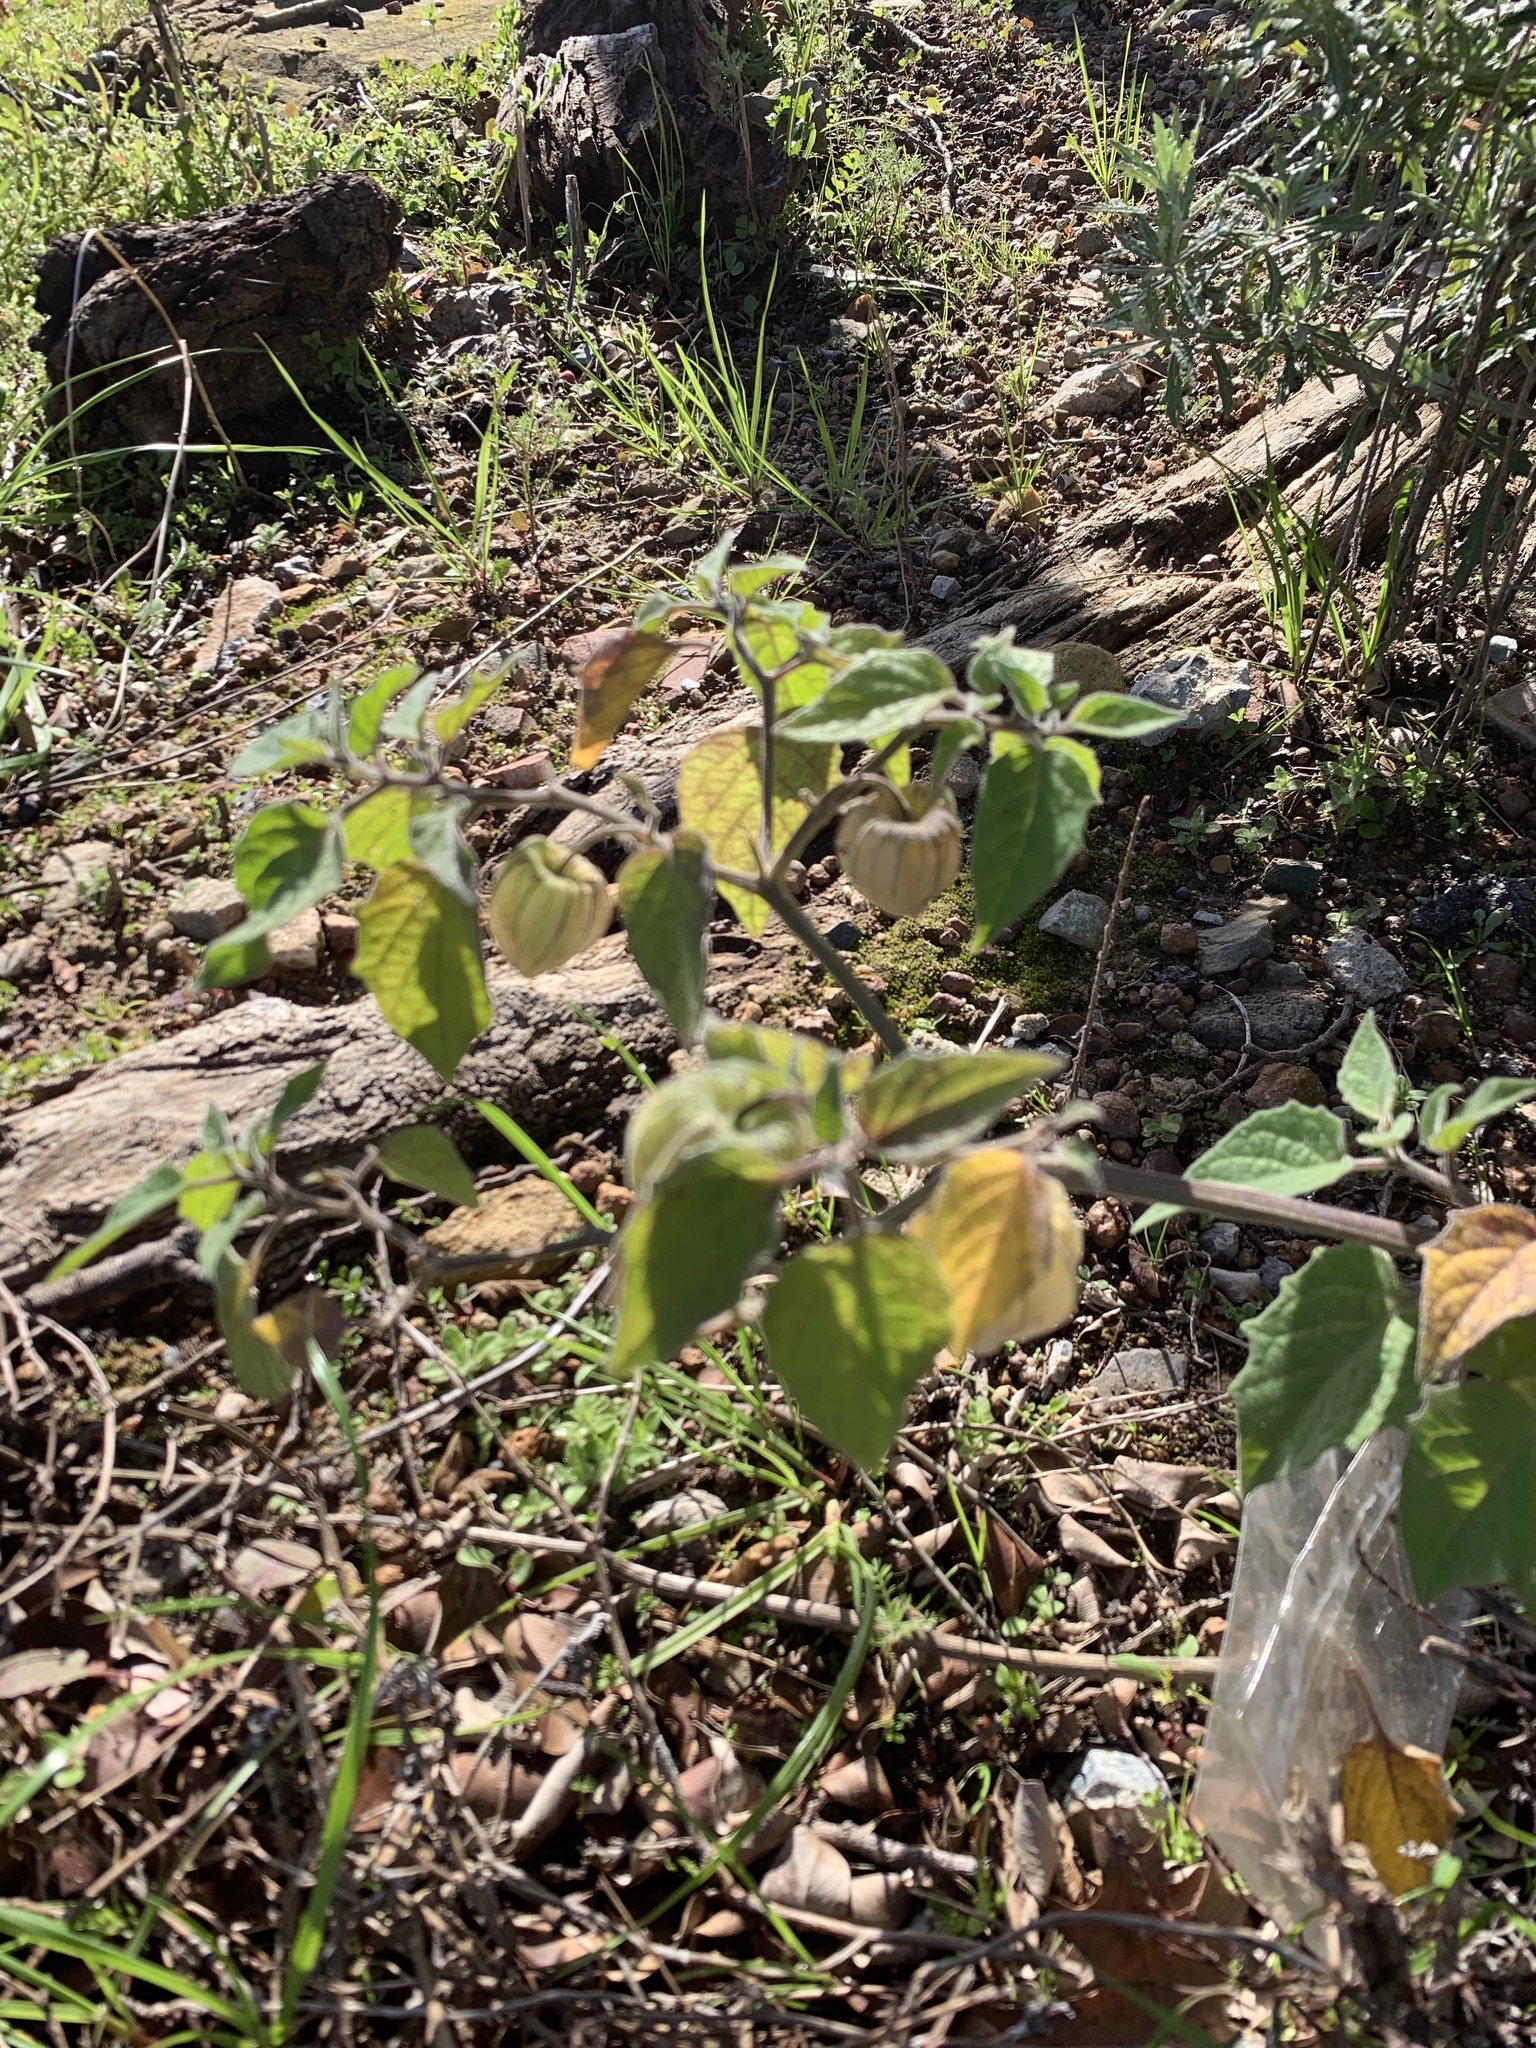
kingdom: Plantae
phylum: Tracheophyta
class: Magnoliopsida
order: Solanales
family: Solanaceae
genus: Physalis
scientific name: Physalis peruviana
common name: Cape-gooseberry
